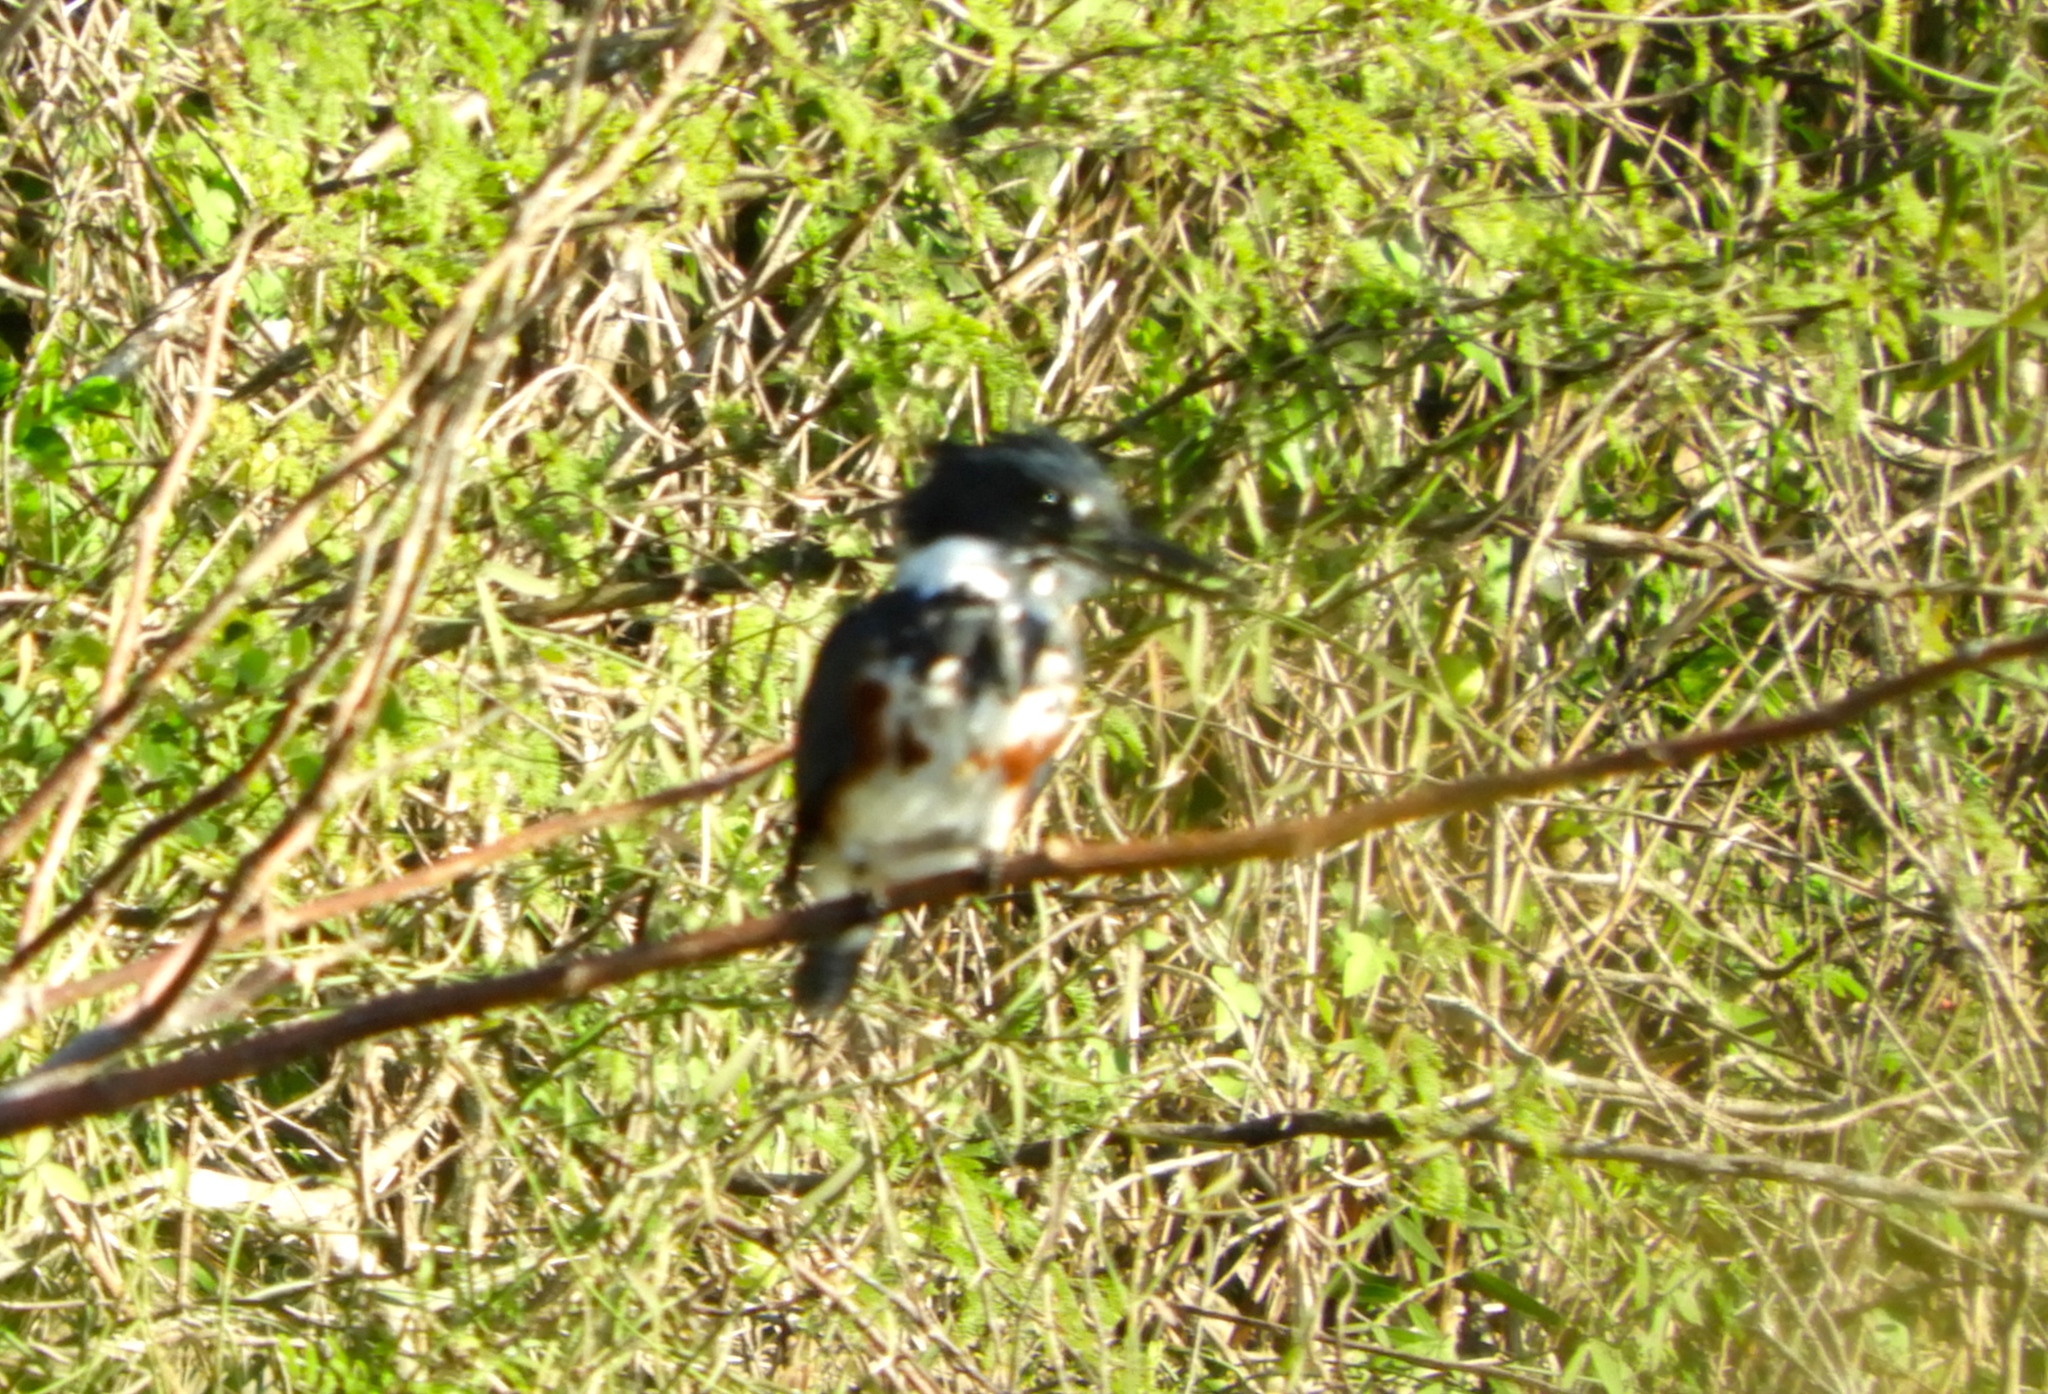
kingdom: Animalia
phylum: Chordata
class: Aves
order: Coraciiformes
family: Alcedinidae
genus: Megaceryle
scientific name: Megaceryle alcyon
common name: Belted kingfisher
